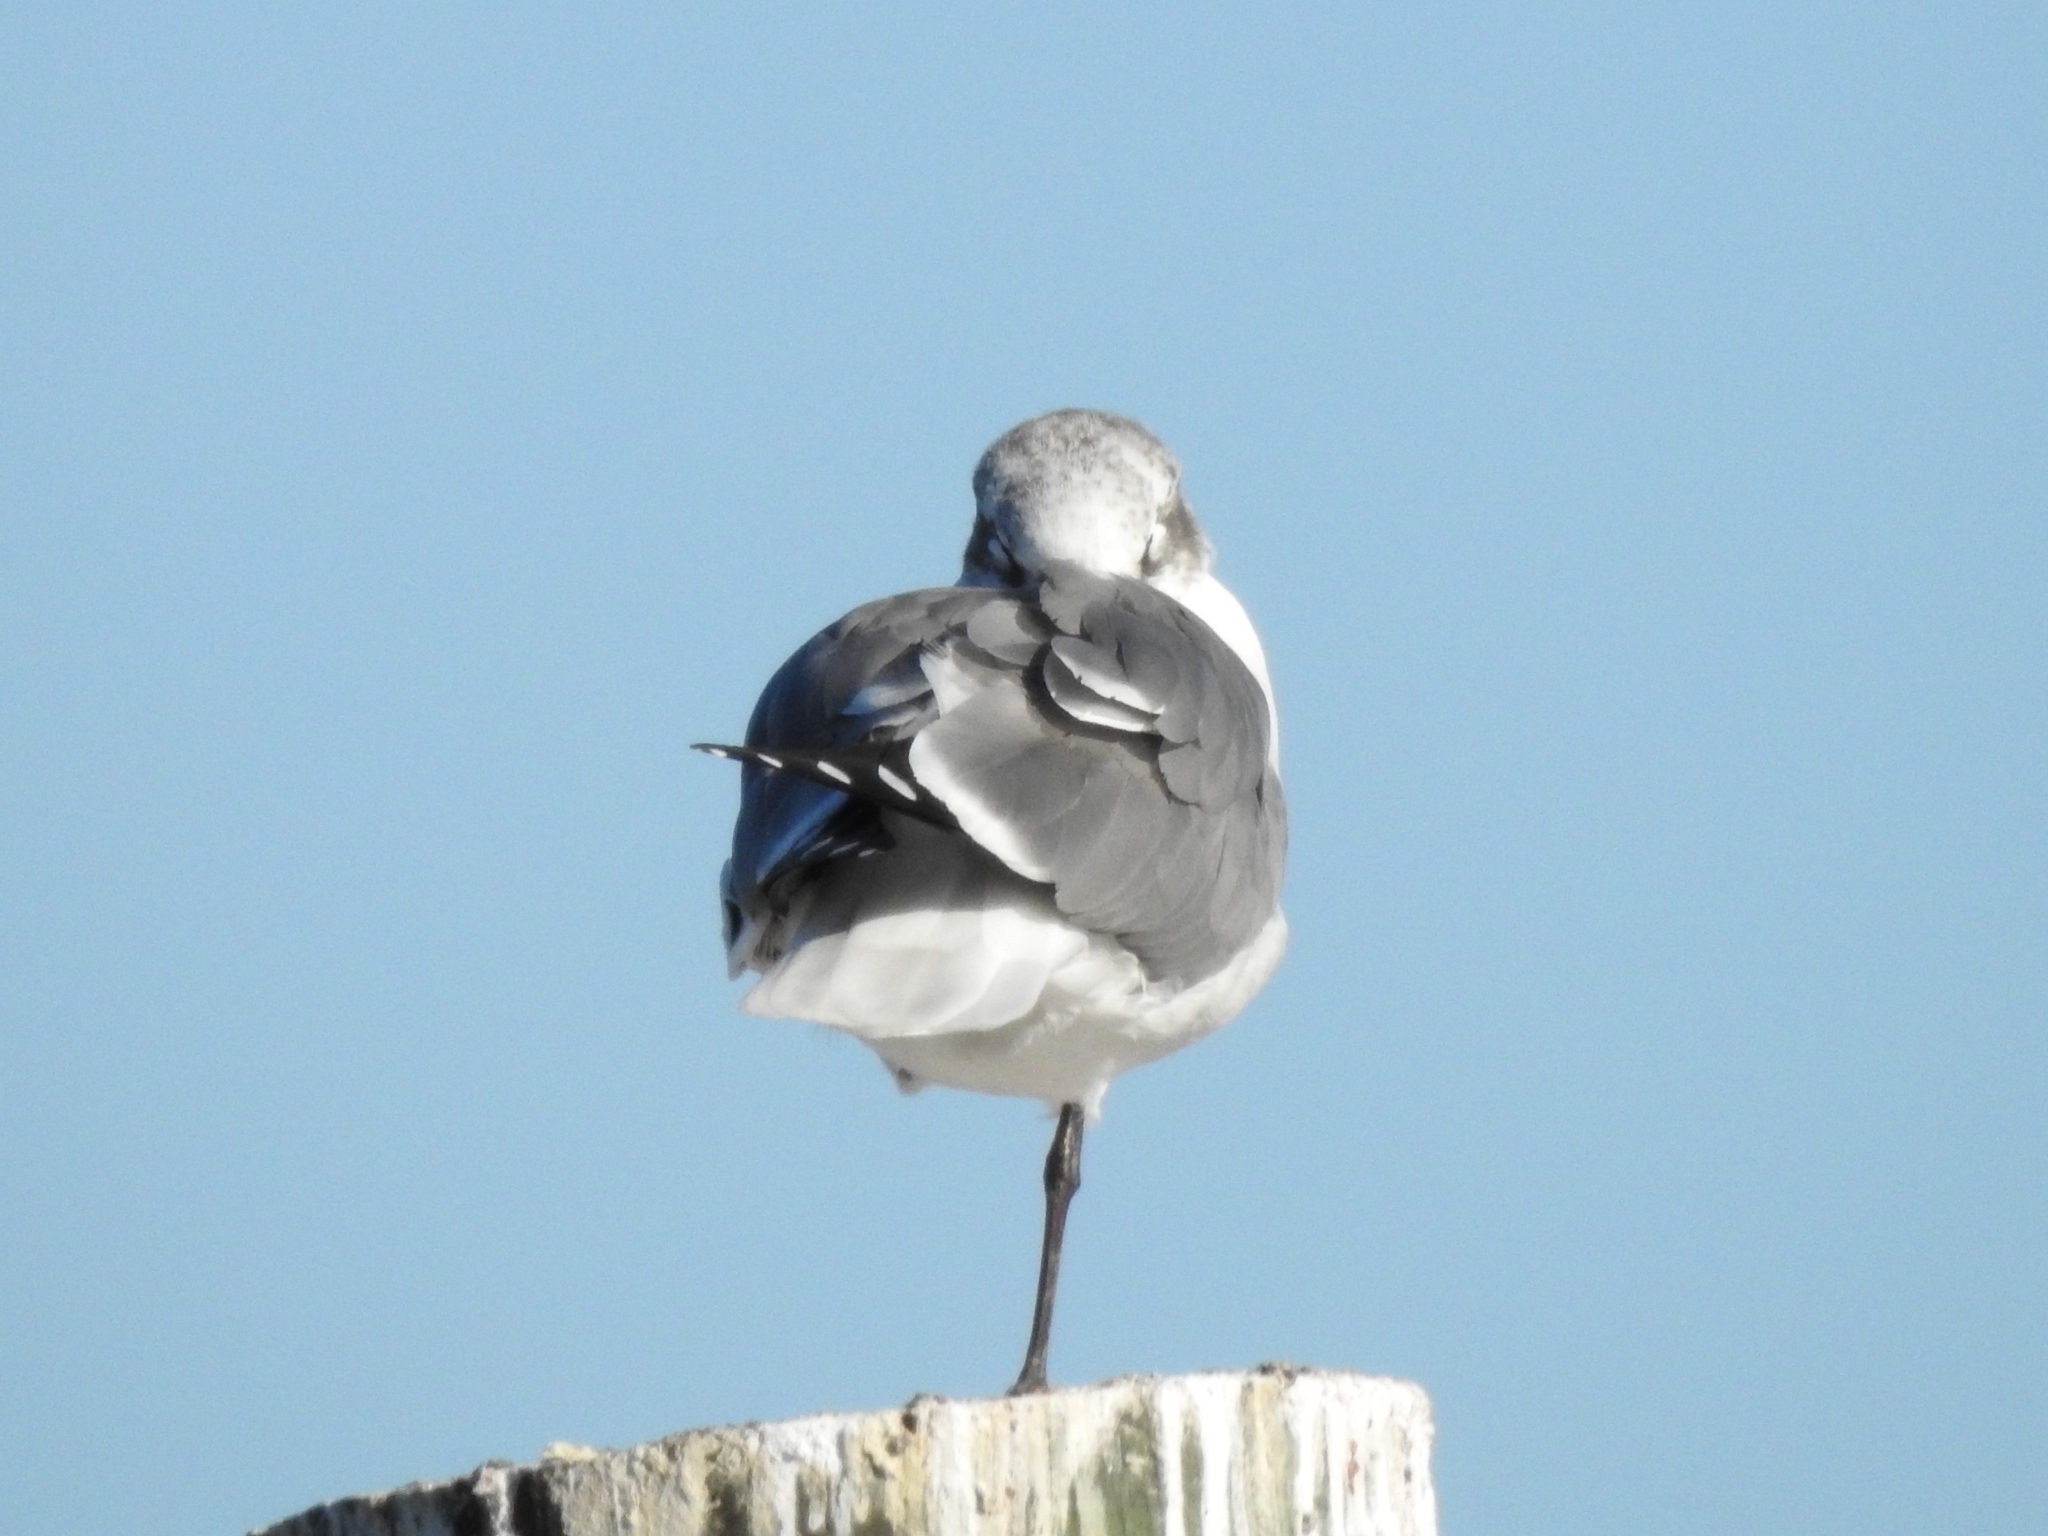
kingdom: Animalia
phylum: Chordata
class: Aves
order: Charadriiformes
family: Laridae
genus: Leucophaeus
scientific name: Leucophaeus atricilla
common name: Laughing gull
